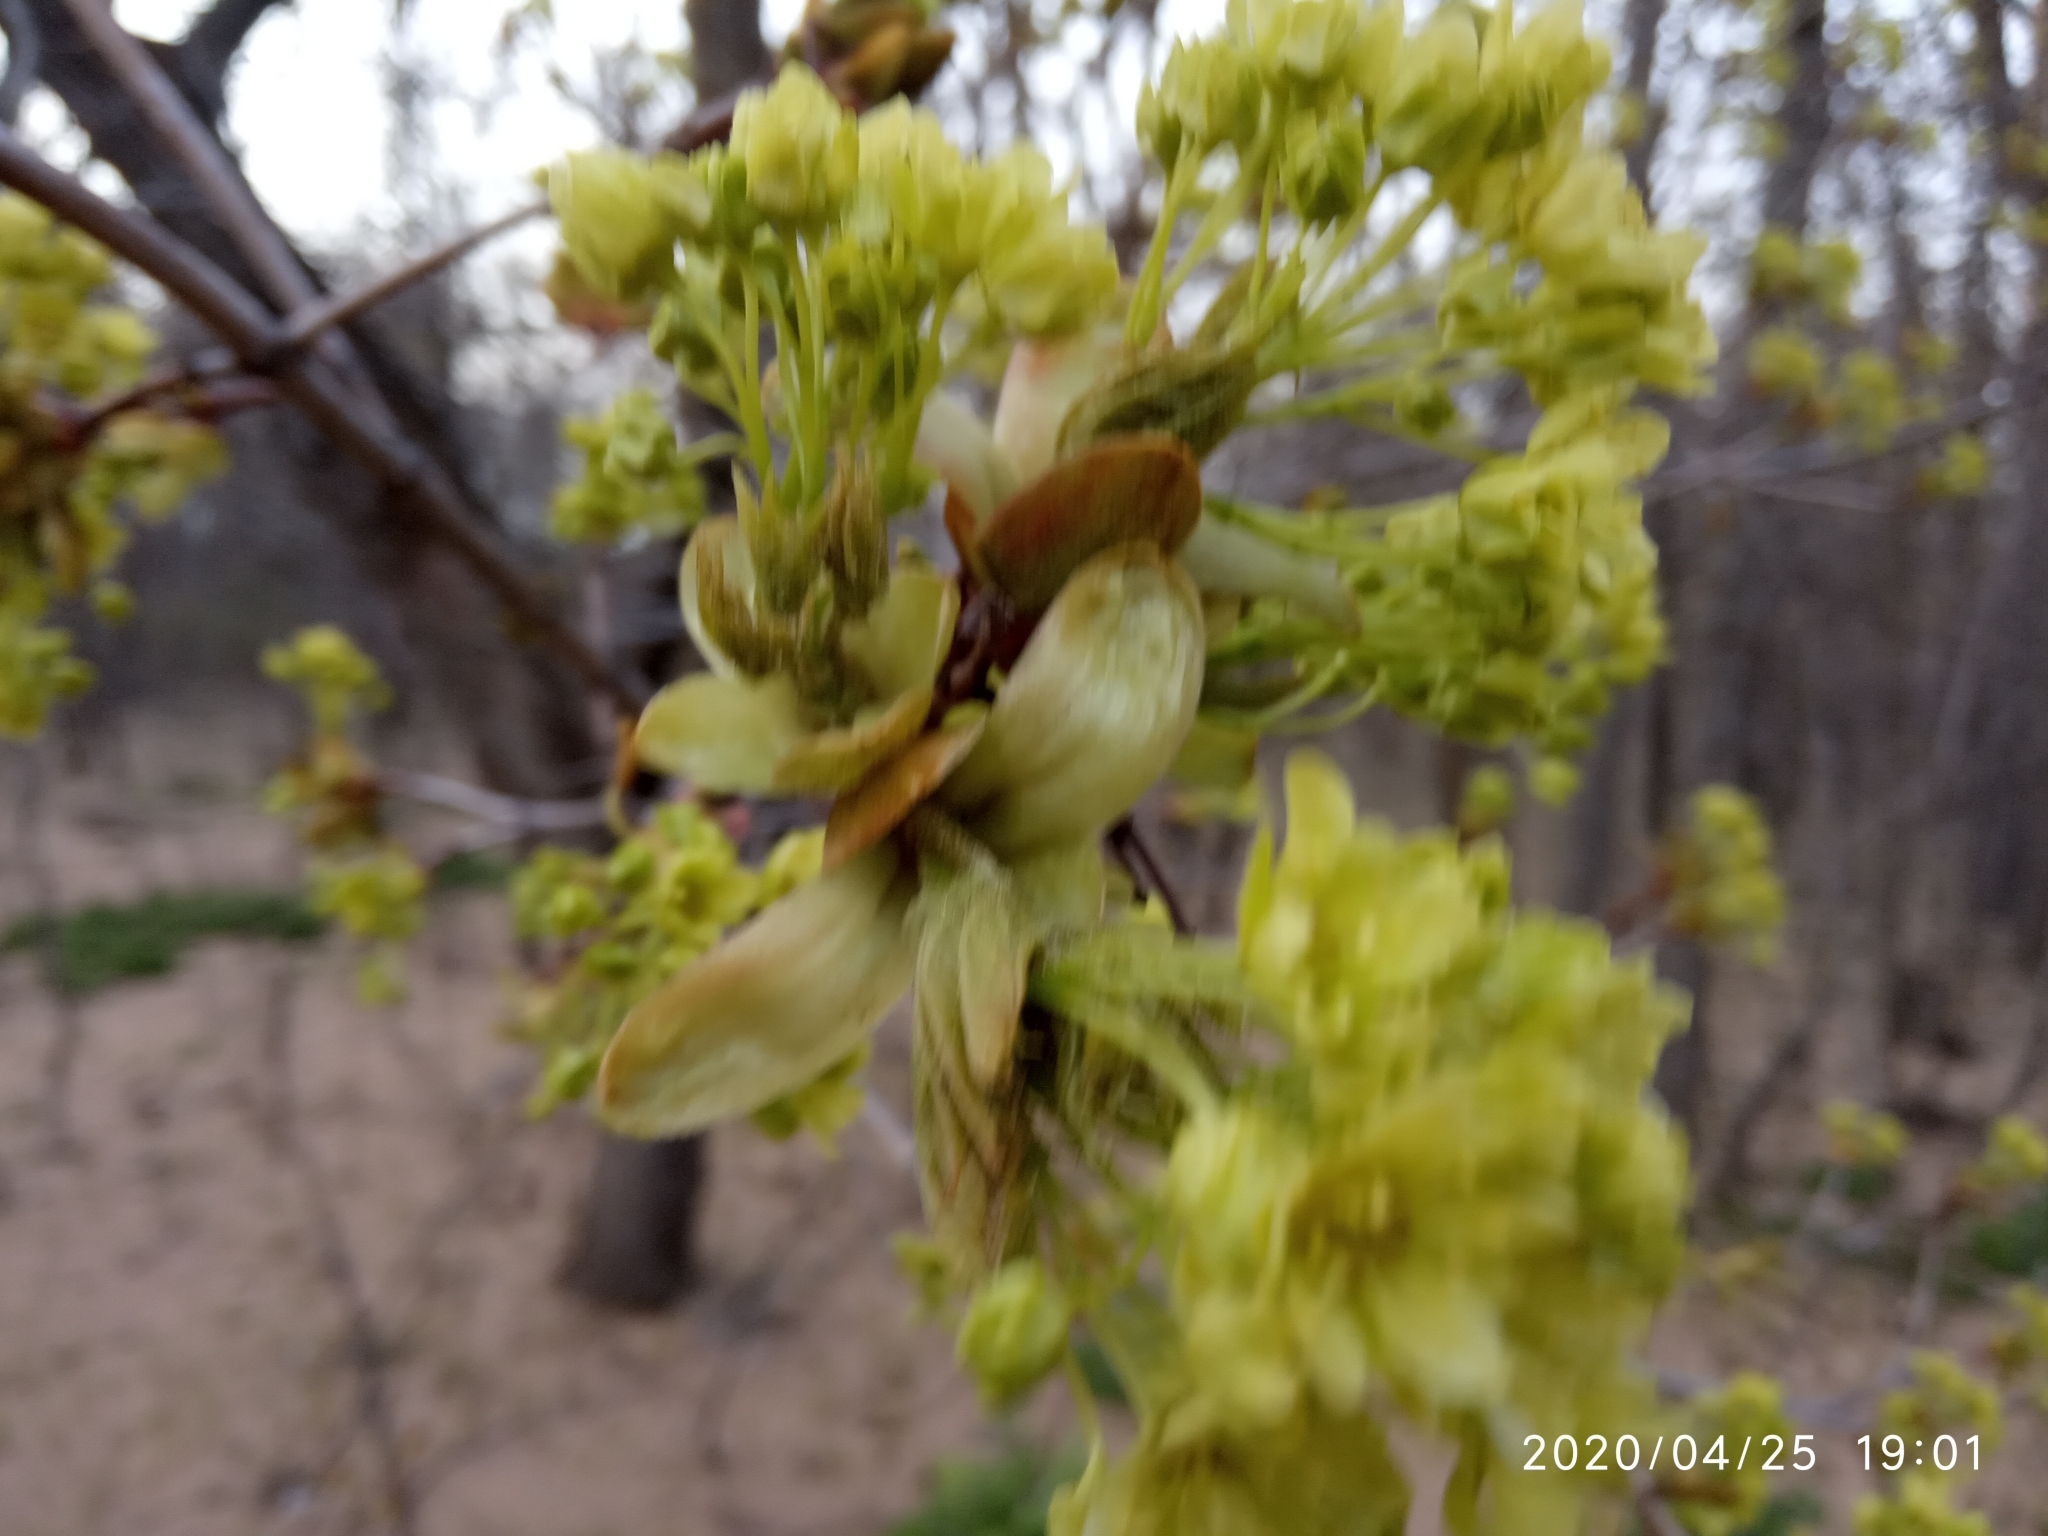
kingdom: Plantae
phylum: Tracheophyta
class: Magnoliopsida
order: Sapindales
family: Sapindaceae
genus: Acer
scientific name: Acer platanoides
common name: Norway maple
